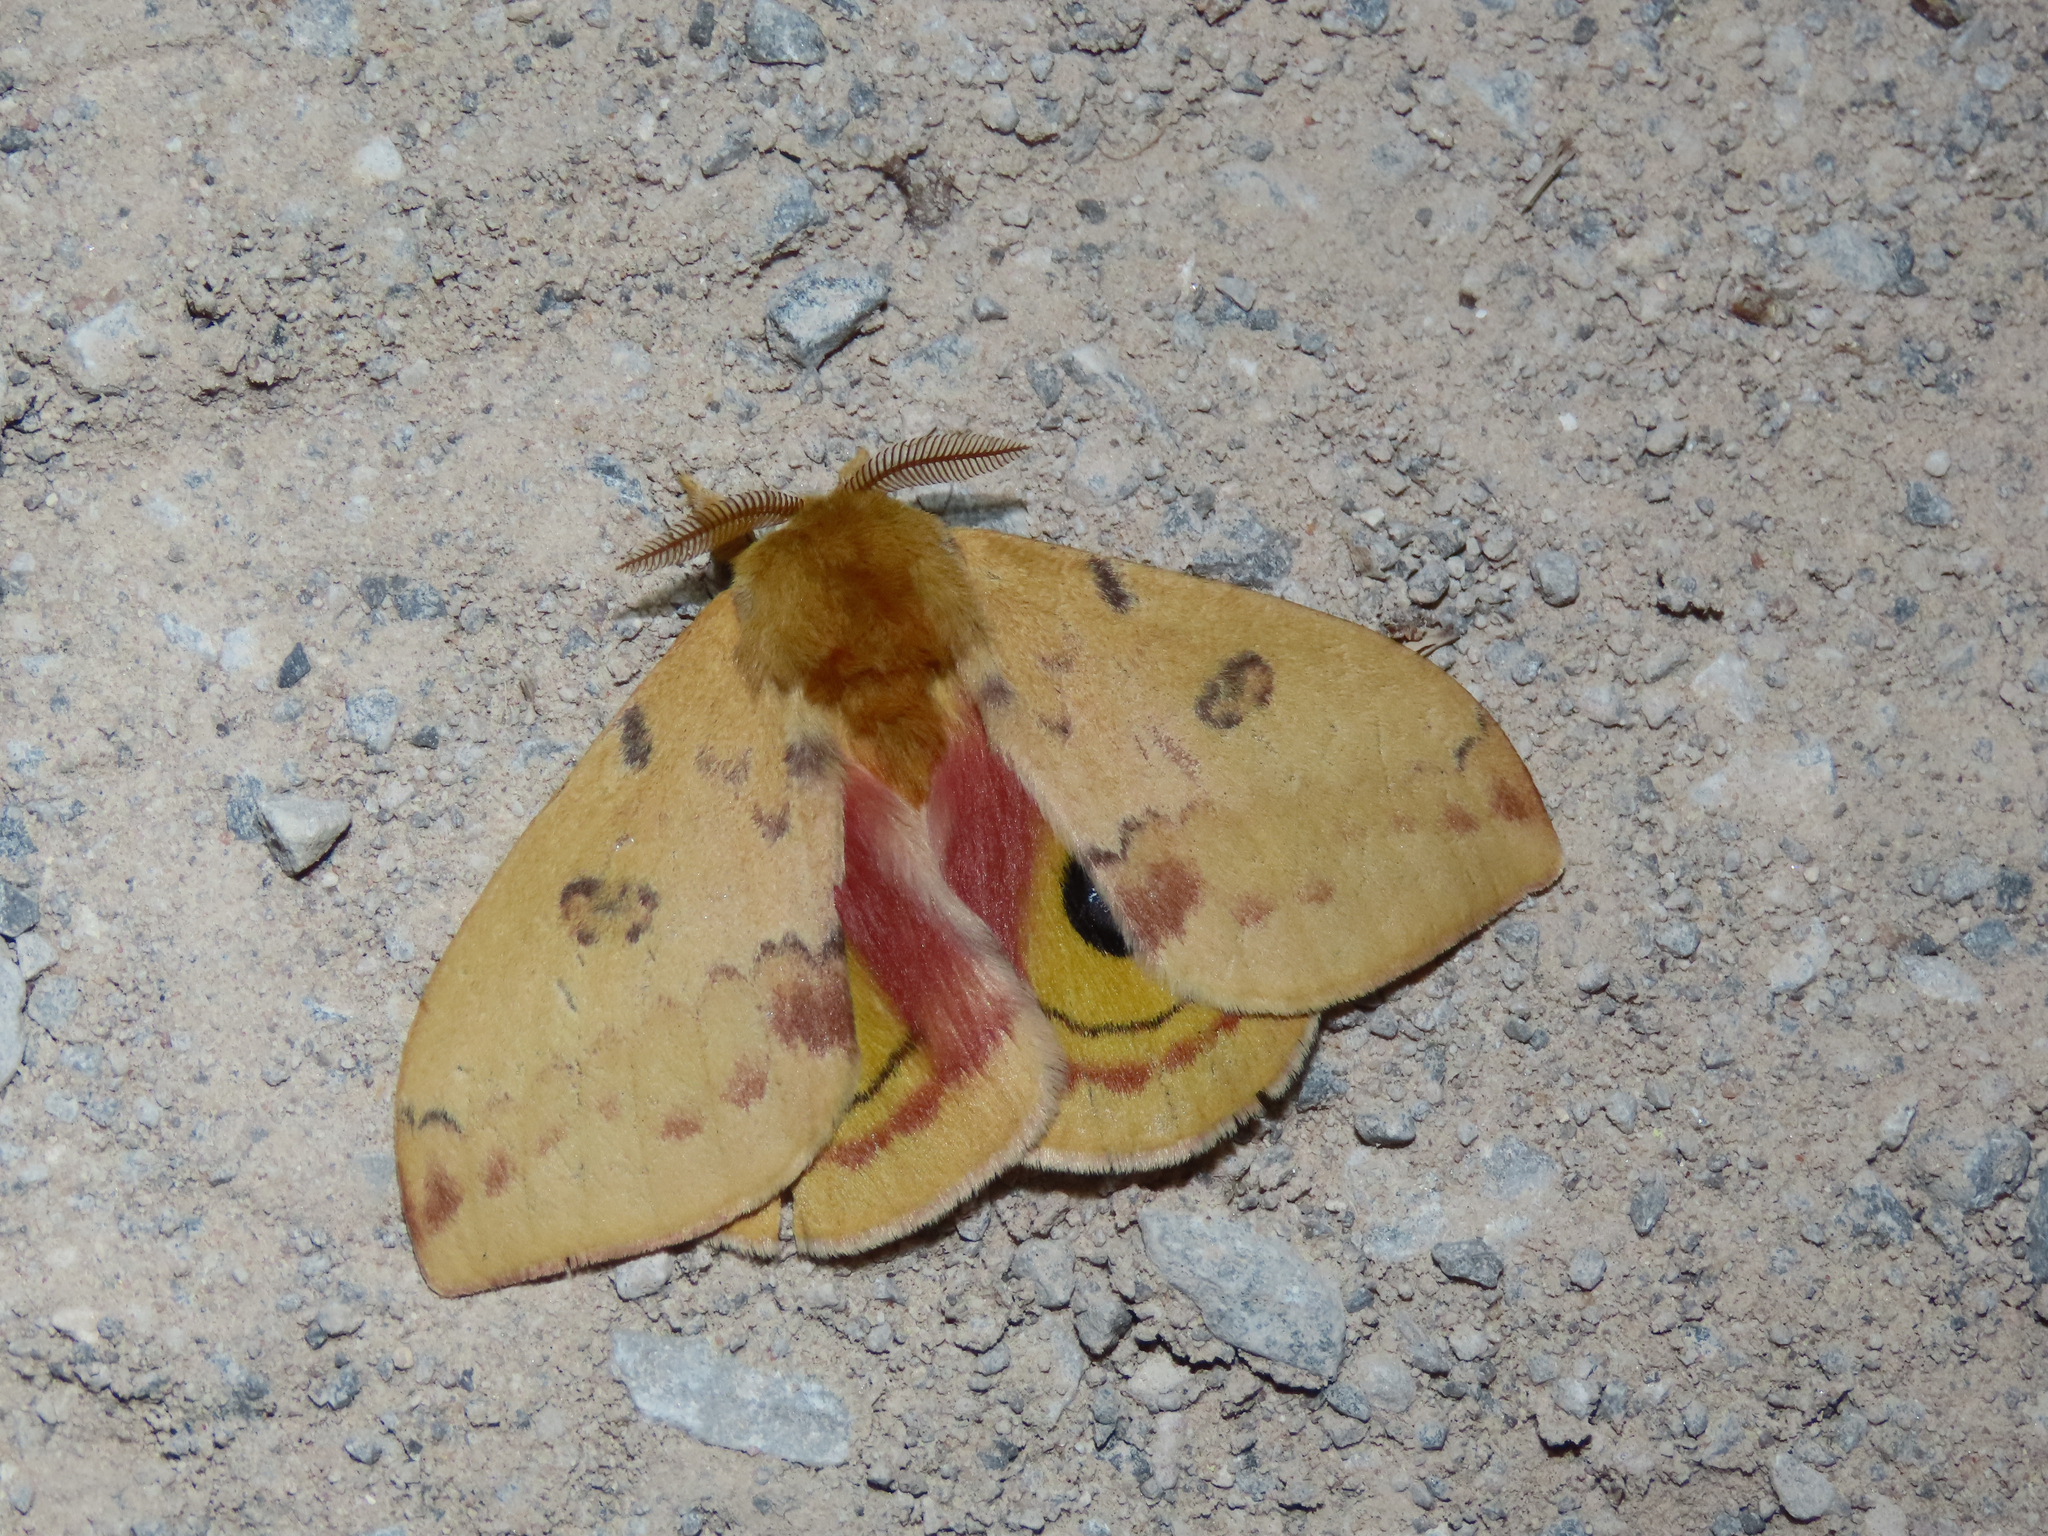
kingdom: Animalia
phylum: Arthropoda
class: Insecta
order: Lepidoptera
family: Saturniidae
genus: Automeris
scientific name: Automeris io
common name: Io moth
